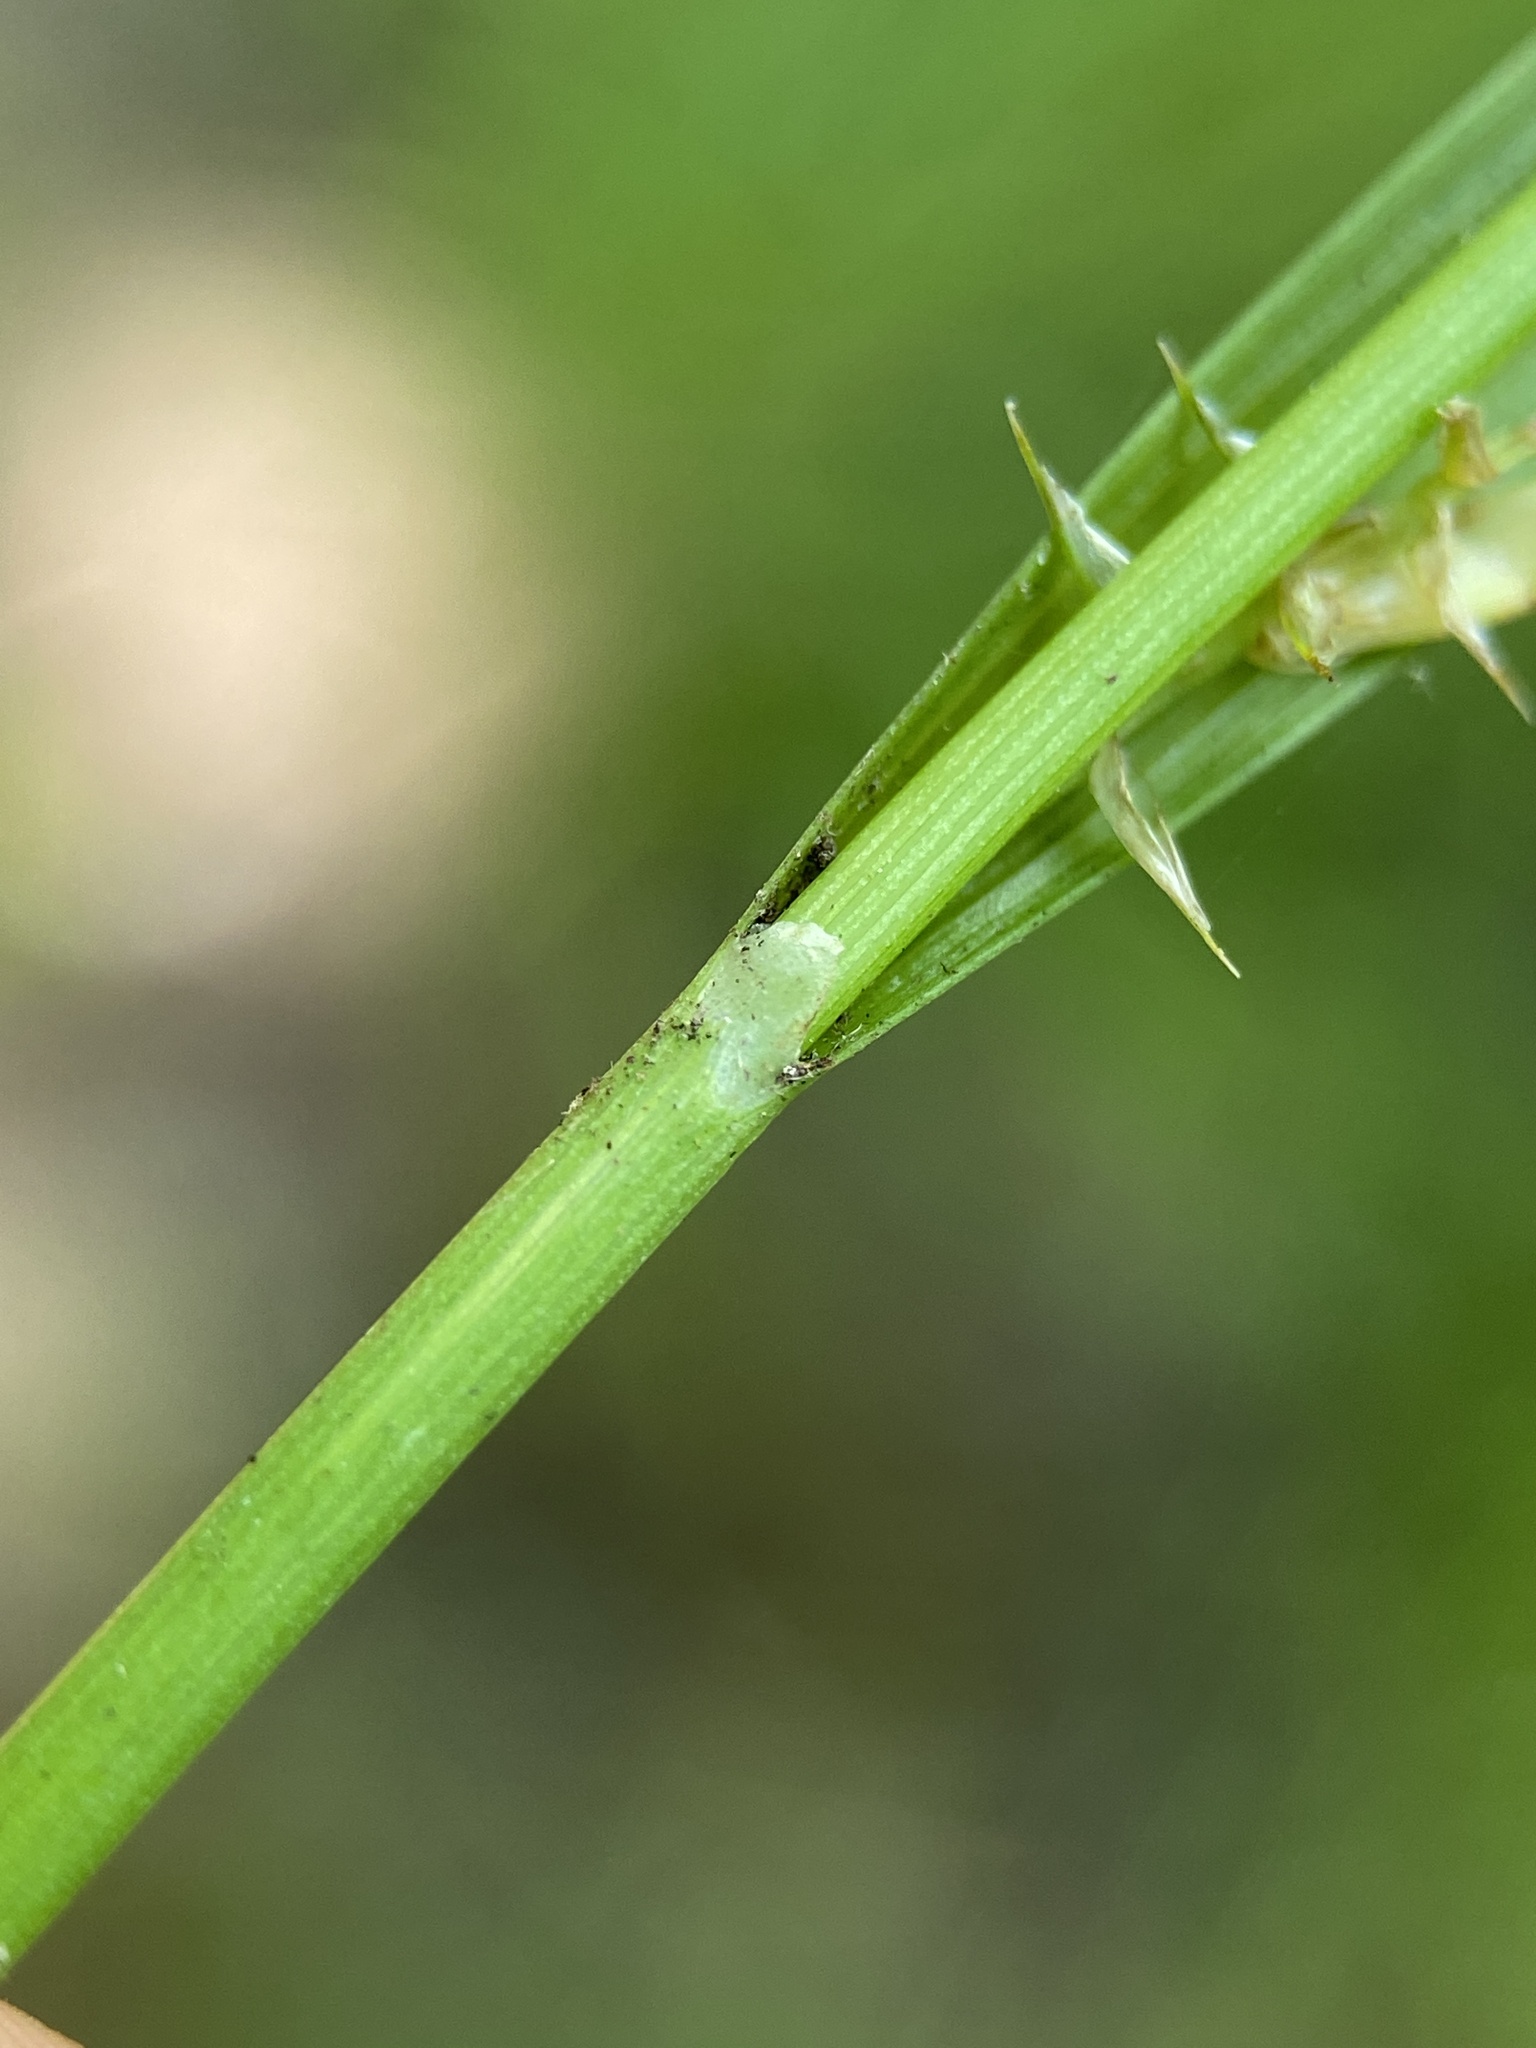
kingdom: Plantae
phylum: Tracheophyta
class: Liliopsida
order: Poales
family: Cyperaceae
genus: Carex
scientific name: Carex collinsii
